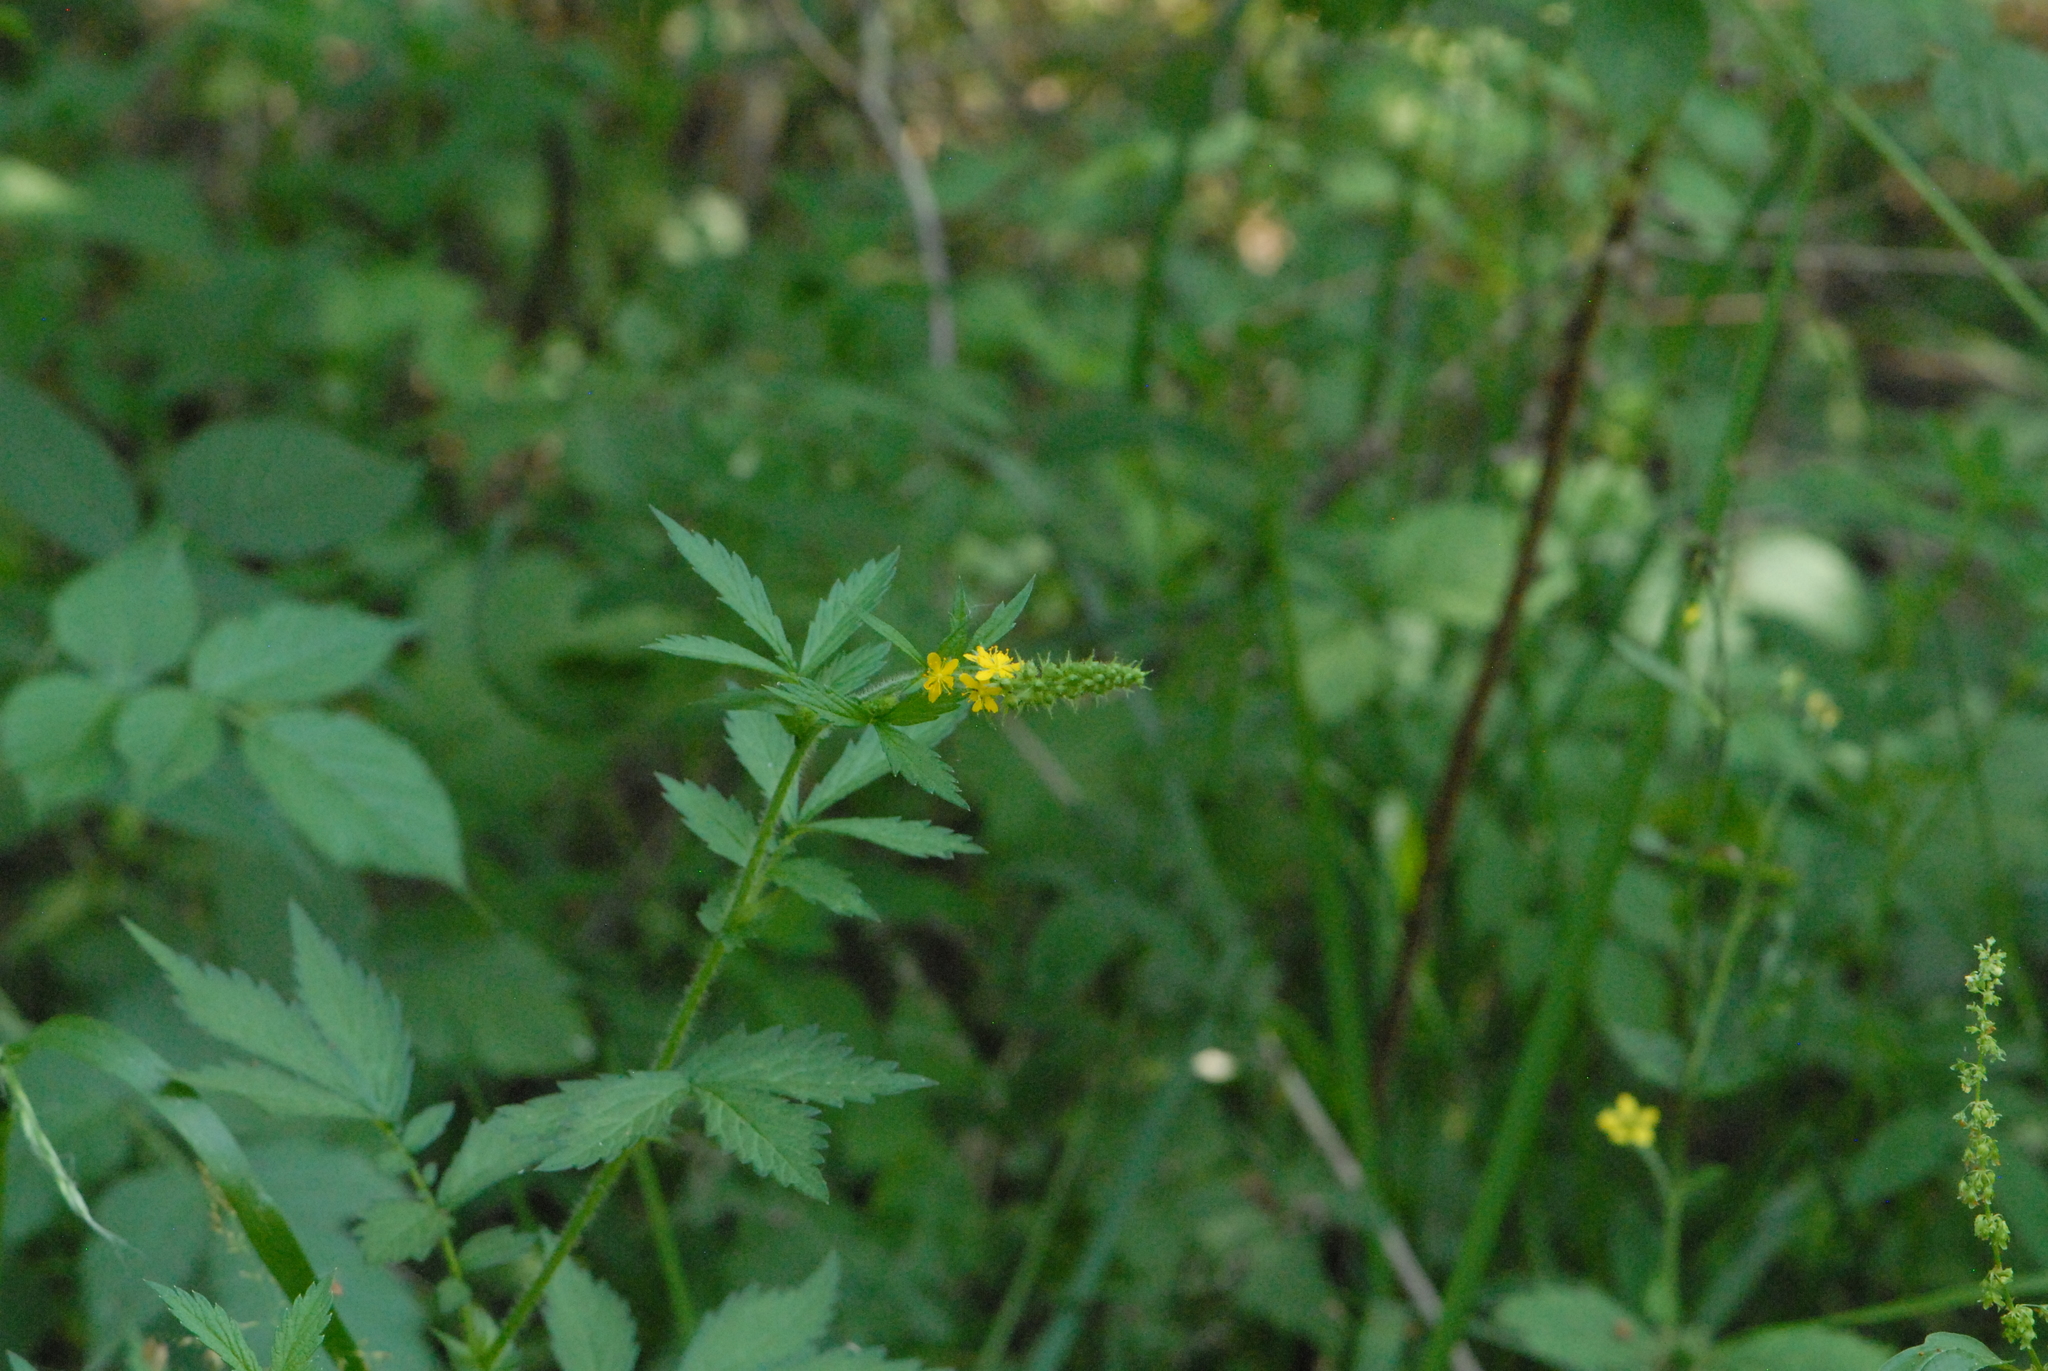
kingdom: Plantae
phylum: Tracheophyta
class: Magnoliopsida
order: Rosales
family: Rosaceae
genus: Agrimonia
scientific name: Agrimonia pilosa
